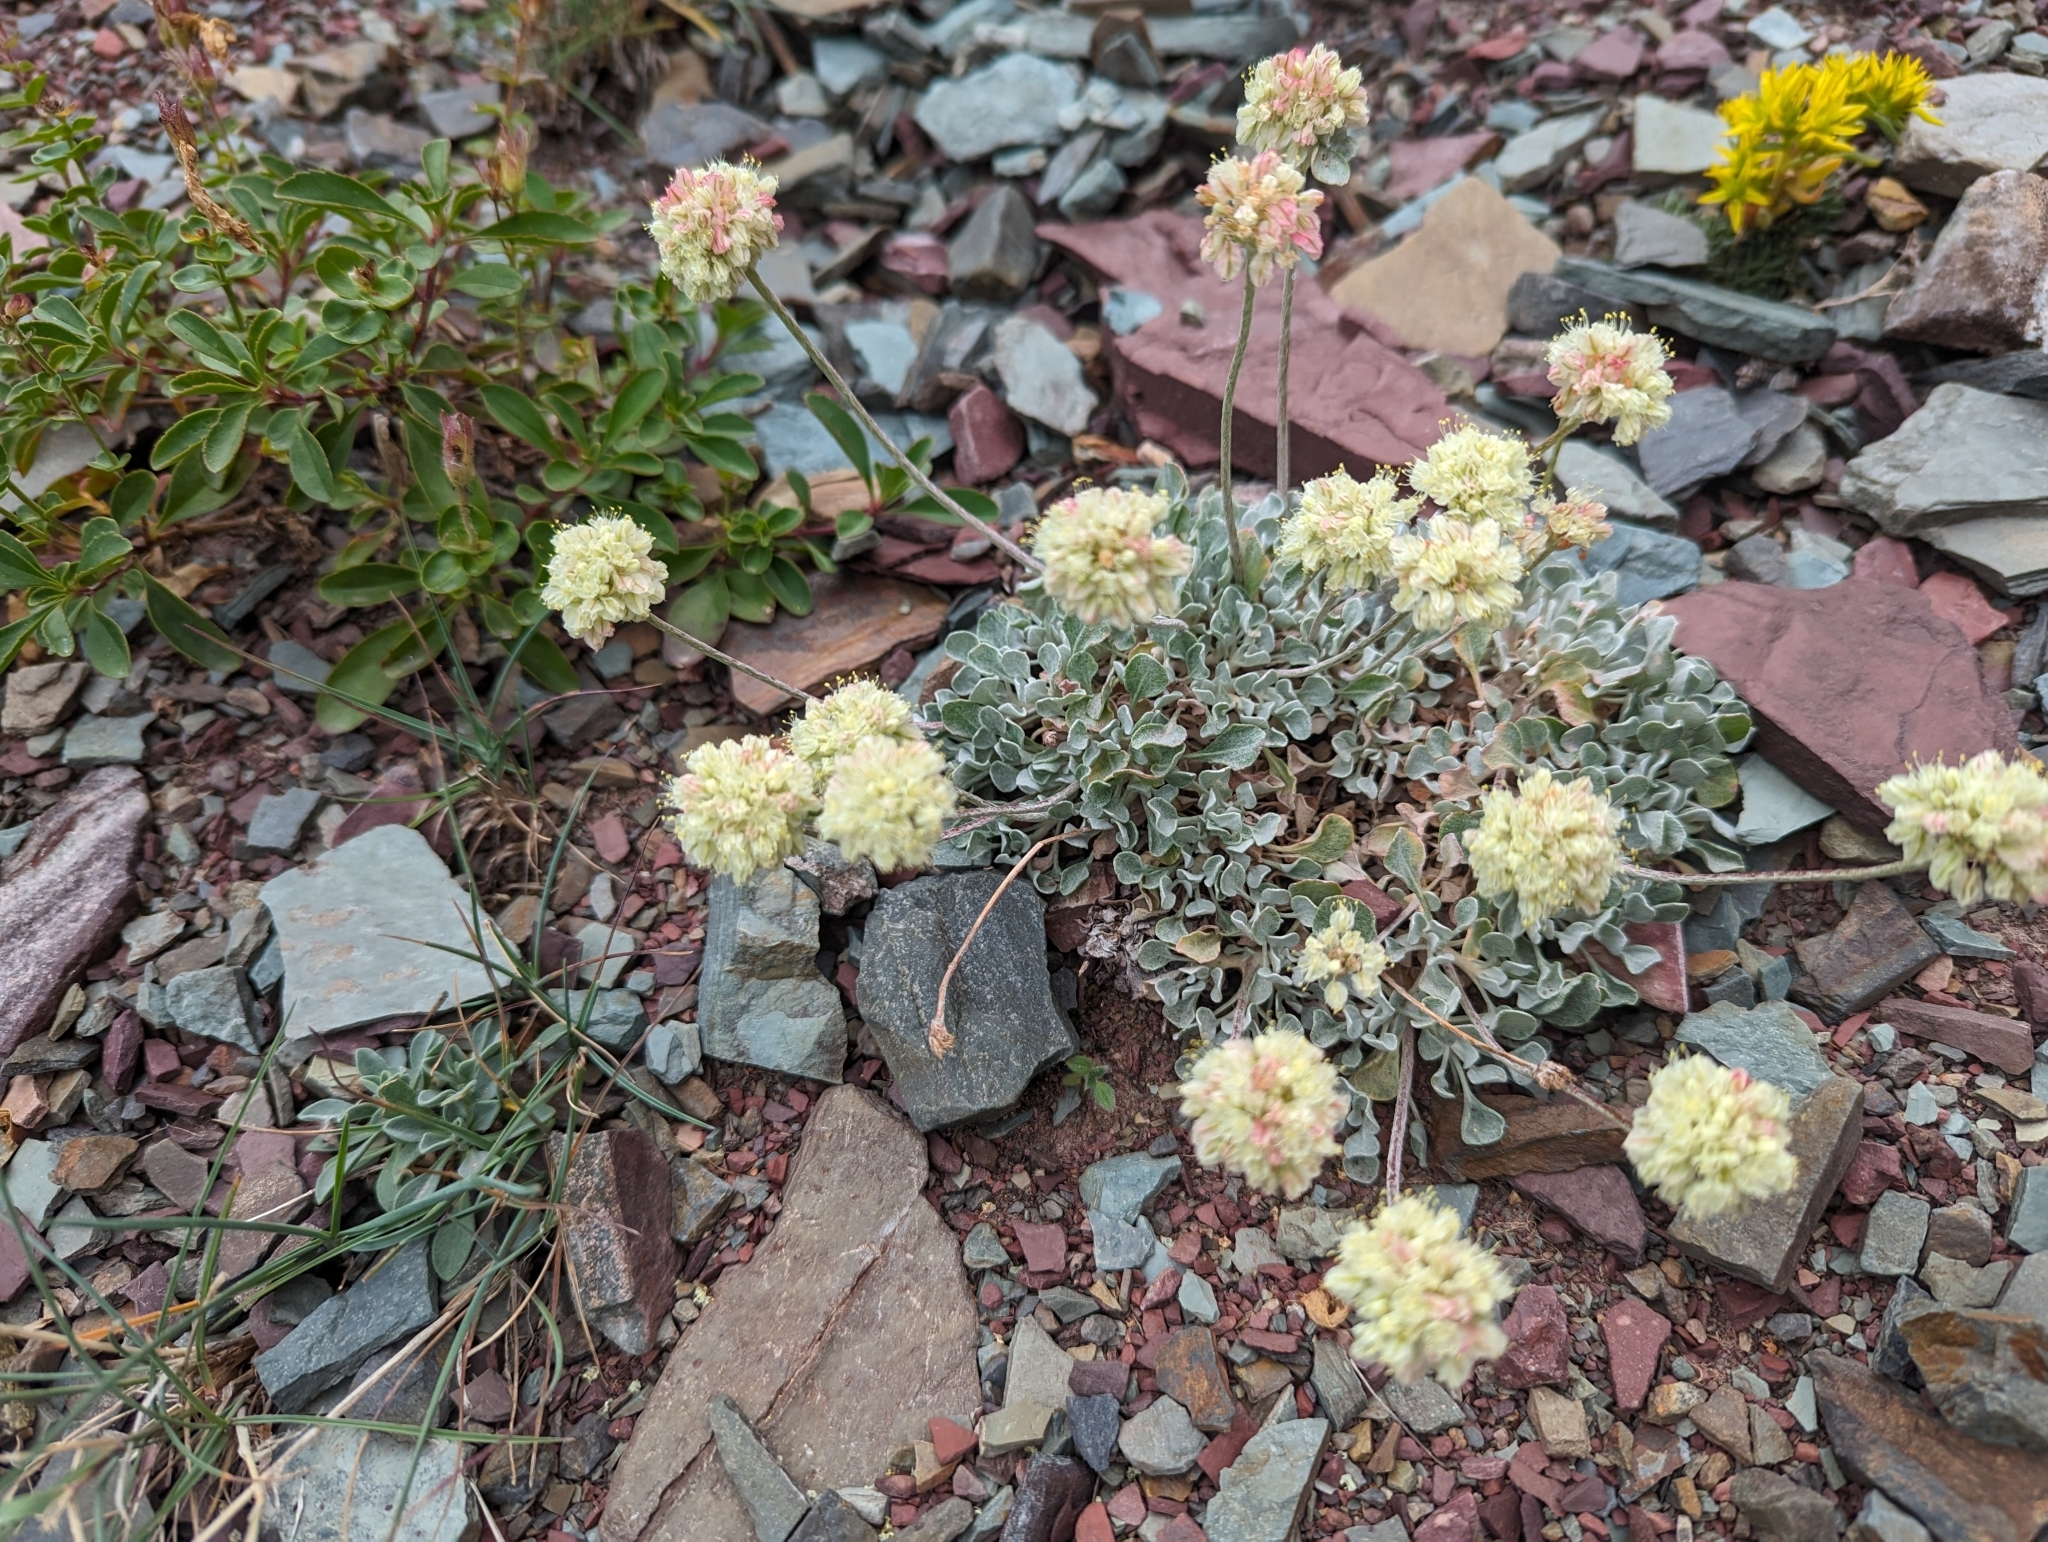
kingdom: Plantae
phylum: Tracheophyta
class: Magnoliopsida
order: Caryophyllales
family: Polygonaceae
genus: Eriogonum
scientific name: Eriogonum ovalifolium
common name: Cushion buckwheat
